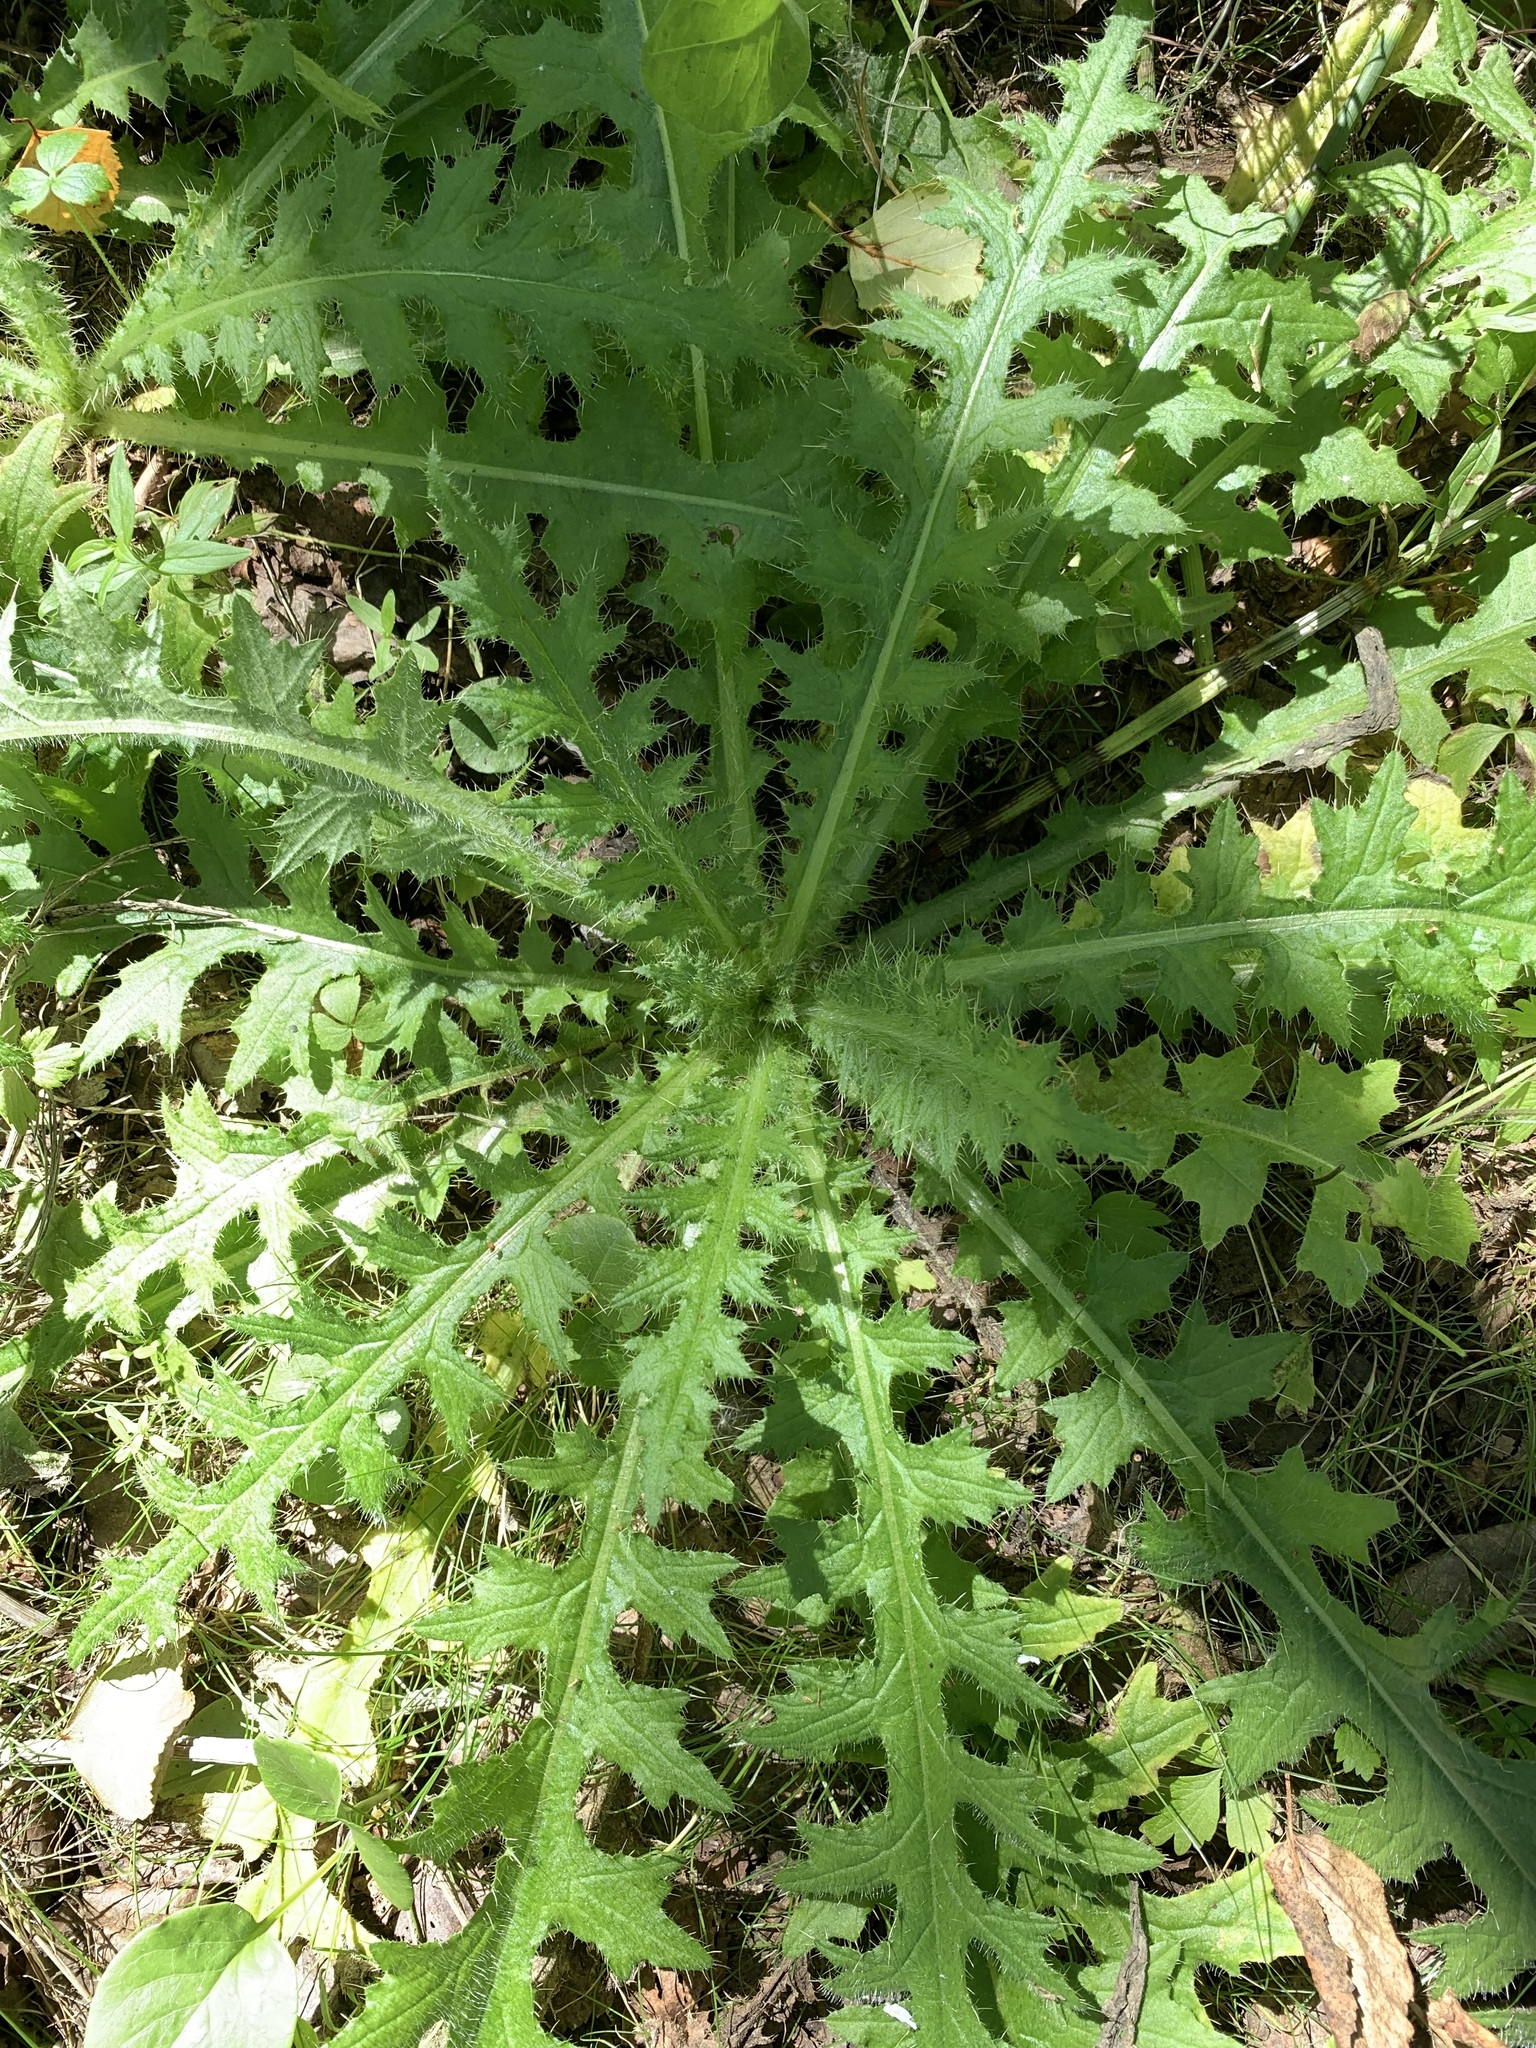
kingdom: Plantae
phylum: Tracheophyta
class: Magnoliopsida
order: Asterales
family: Asteraceae
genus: Cirsium
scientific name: Cirsium palustre
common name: Marsh thistle
